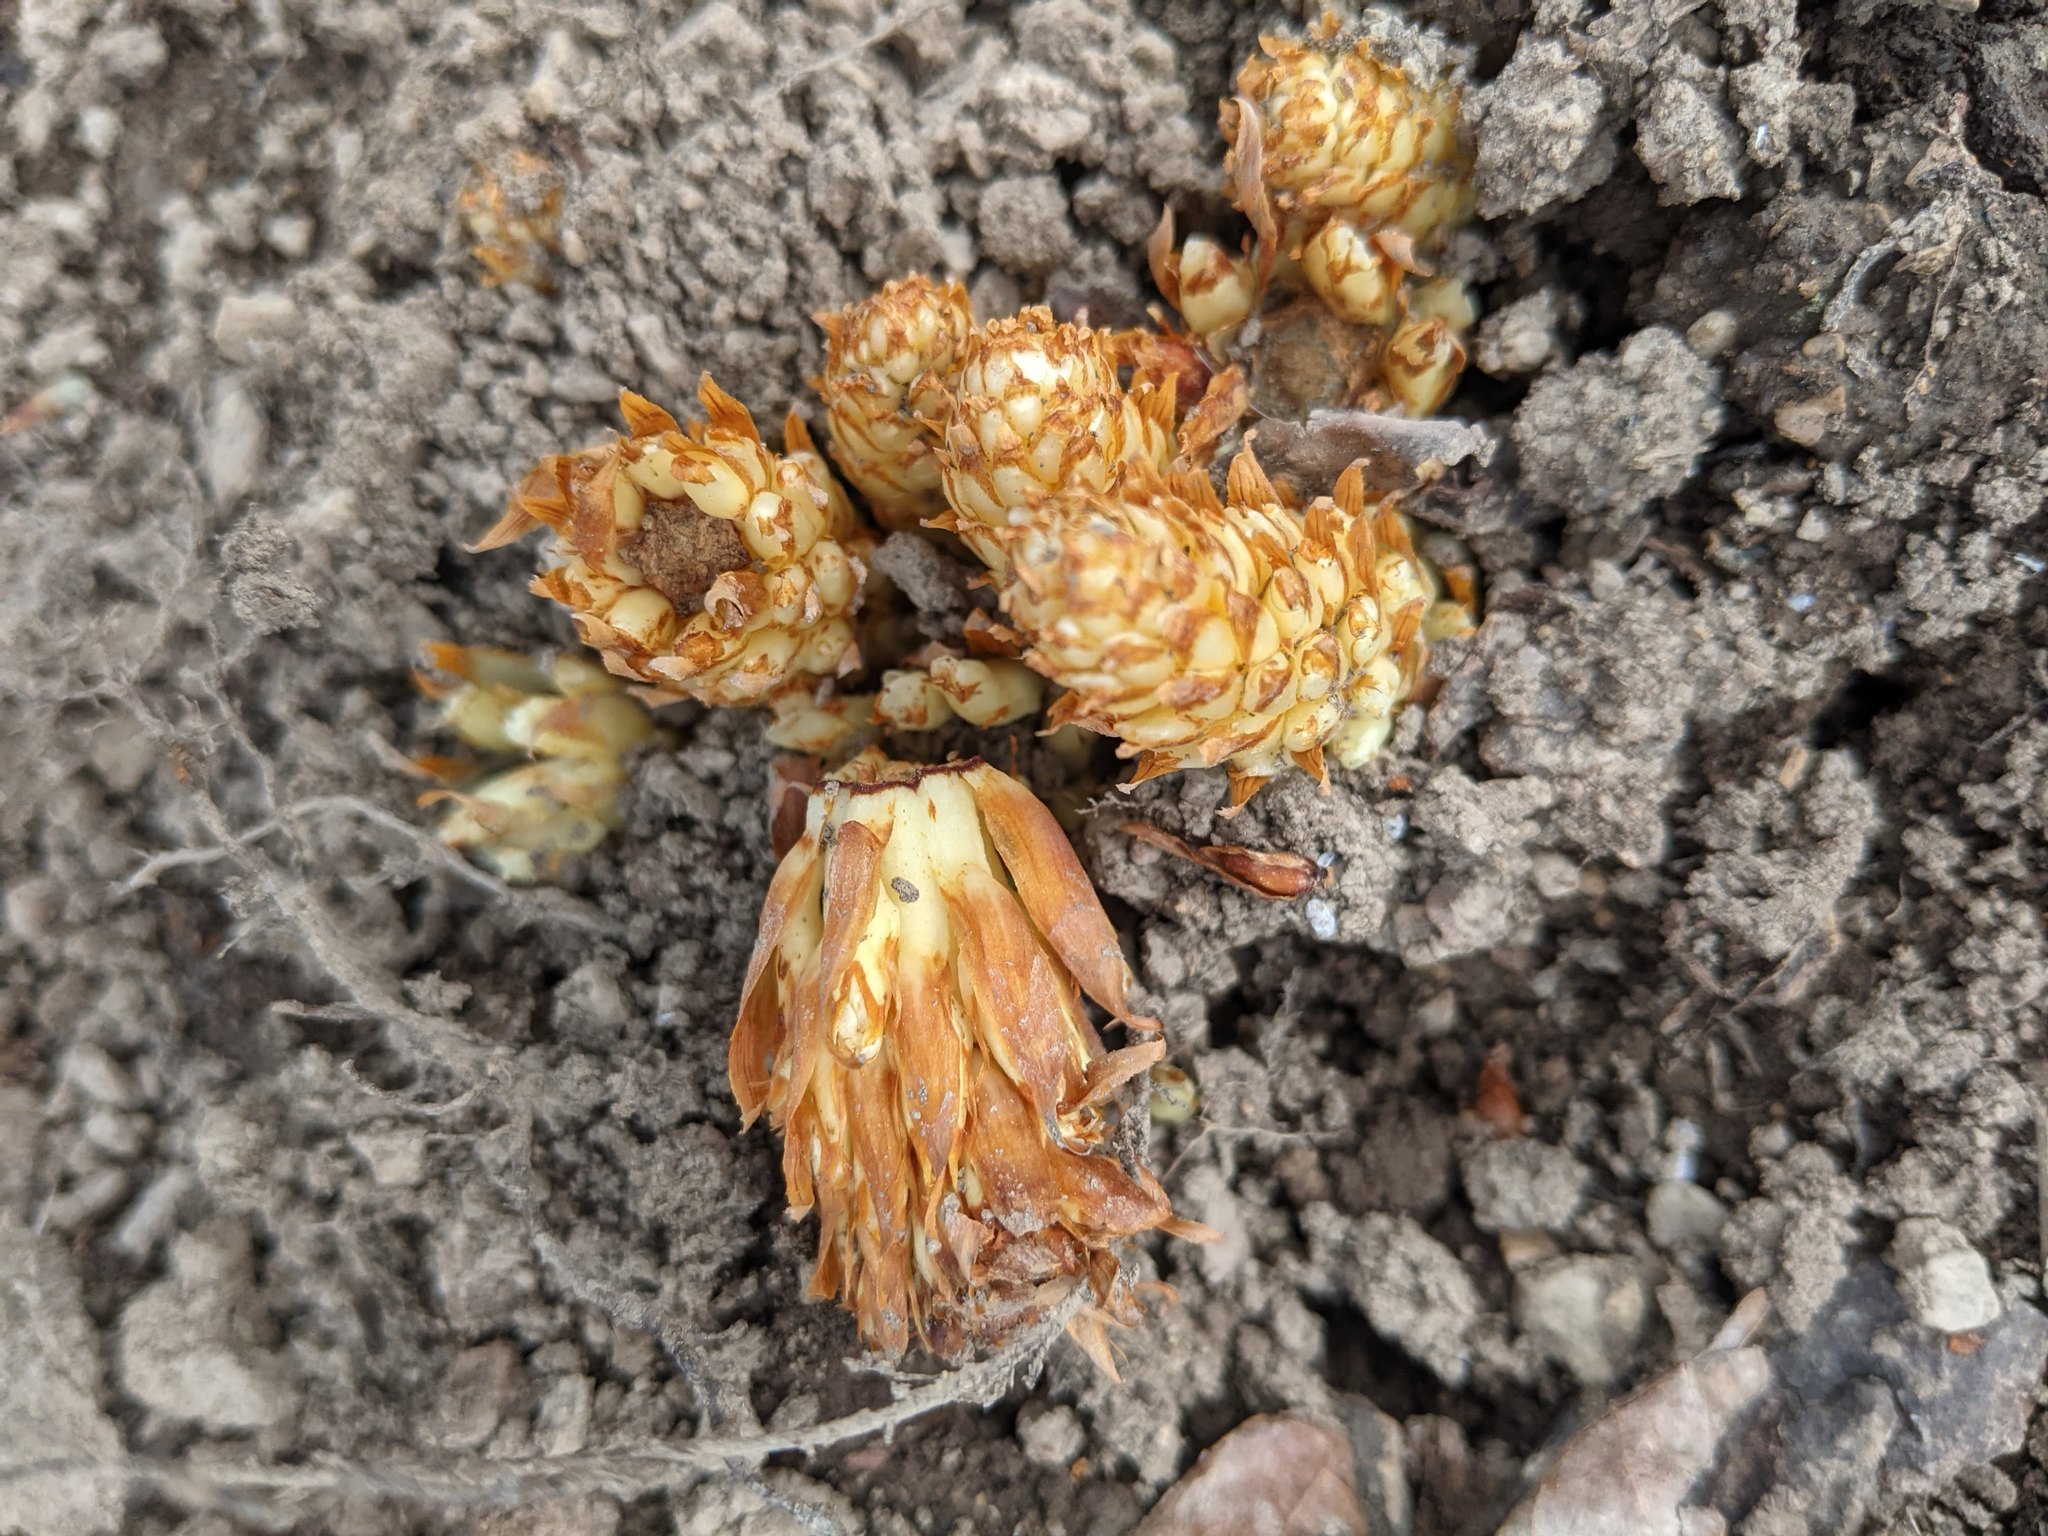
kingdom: Plantae
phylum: Tracheophyta
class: Magnoliopsida
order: Lamiales
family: Orobanchaceae
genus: Conopholis
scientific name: Conopholis americana
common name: American cancer-root
